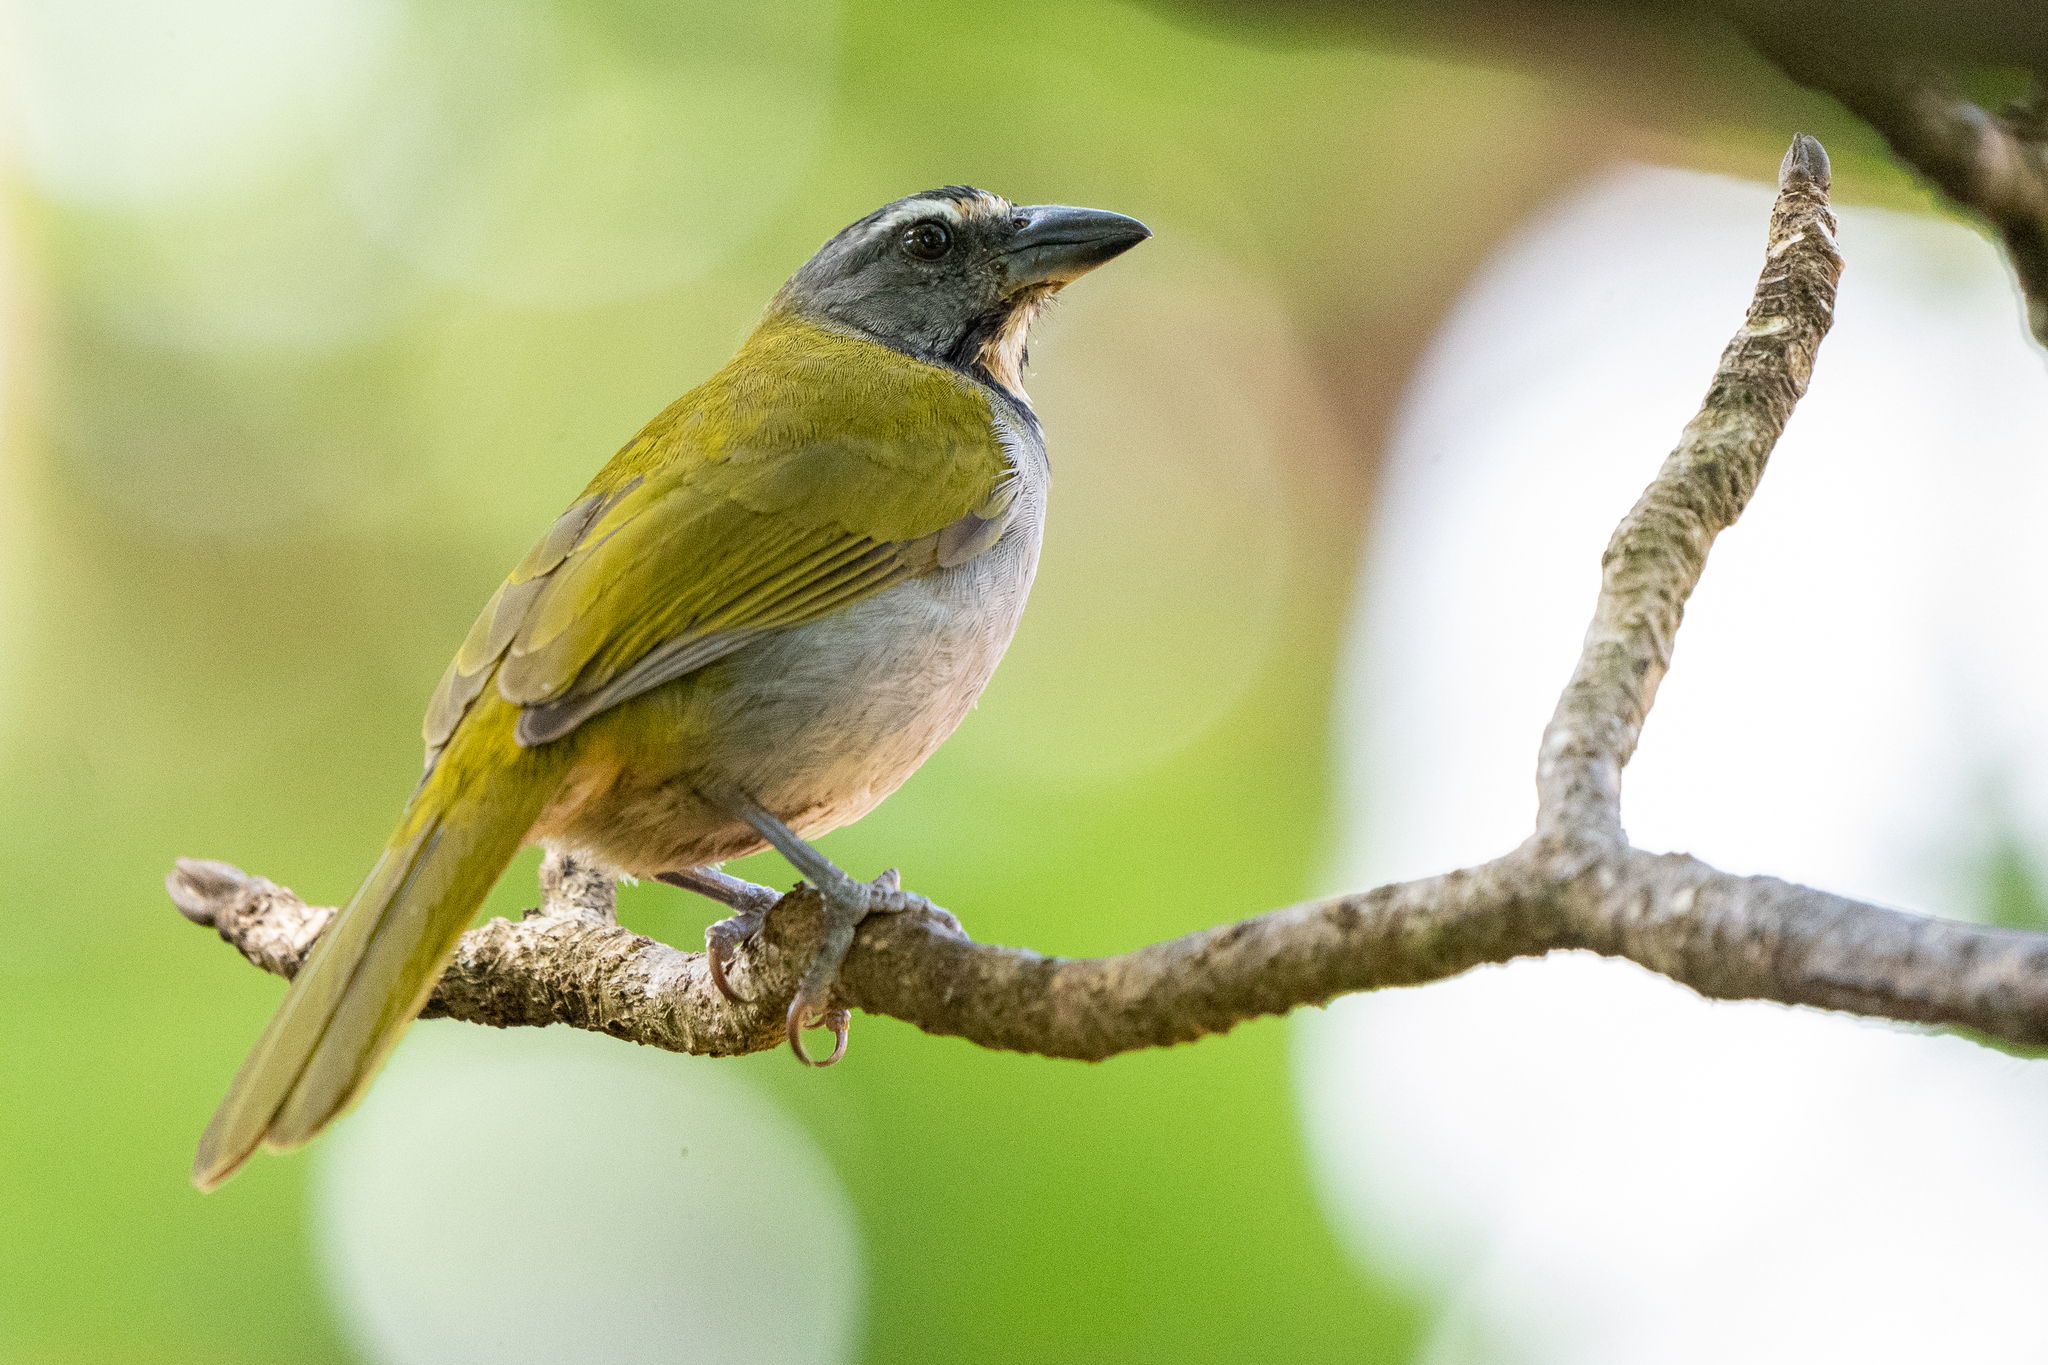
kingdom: Animalia
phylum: Chordata
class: Aves
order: Passeriformes
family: Thraupidae
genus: Saltator
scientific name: Saltator maximus
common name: Buff-throated saltator
